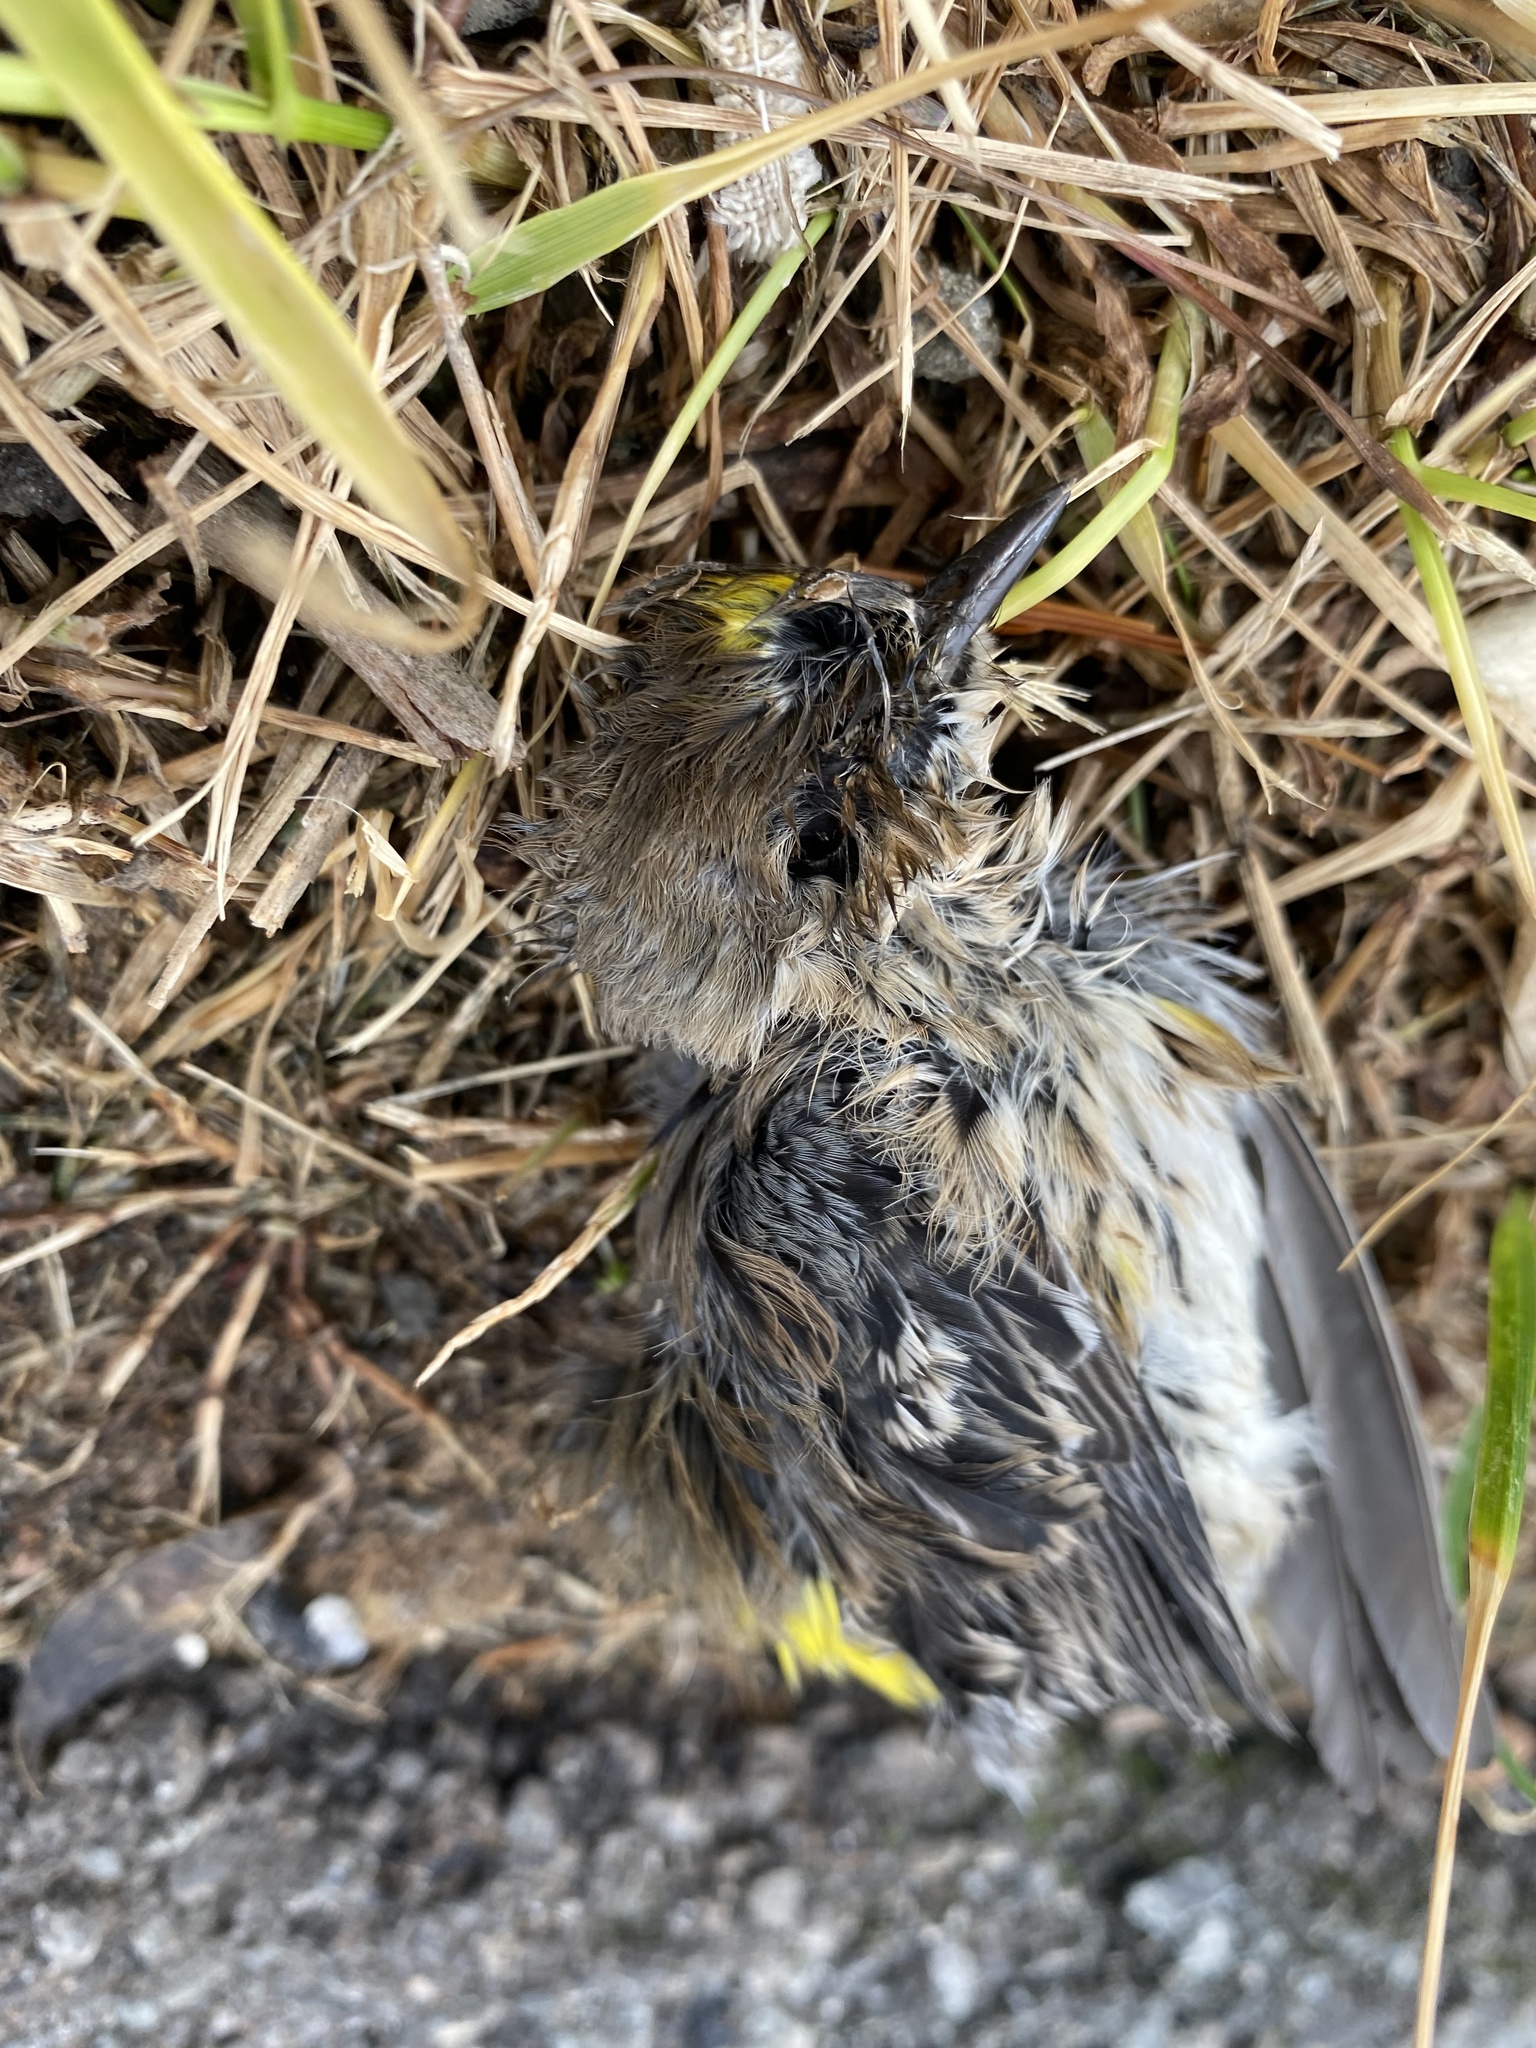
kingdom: Animalia
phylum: Chordata
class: Aves
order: Passeriformes
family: Parulidae
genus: Setophaga
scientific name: Setophaga coronata
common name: Myrtle warbler
